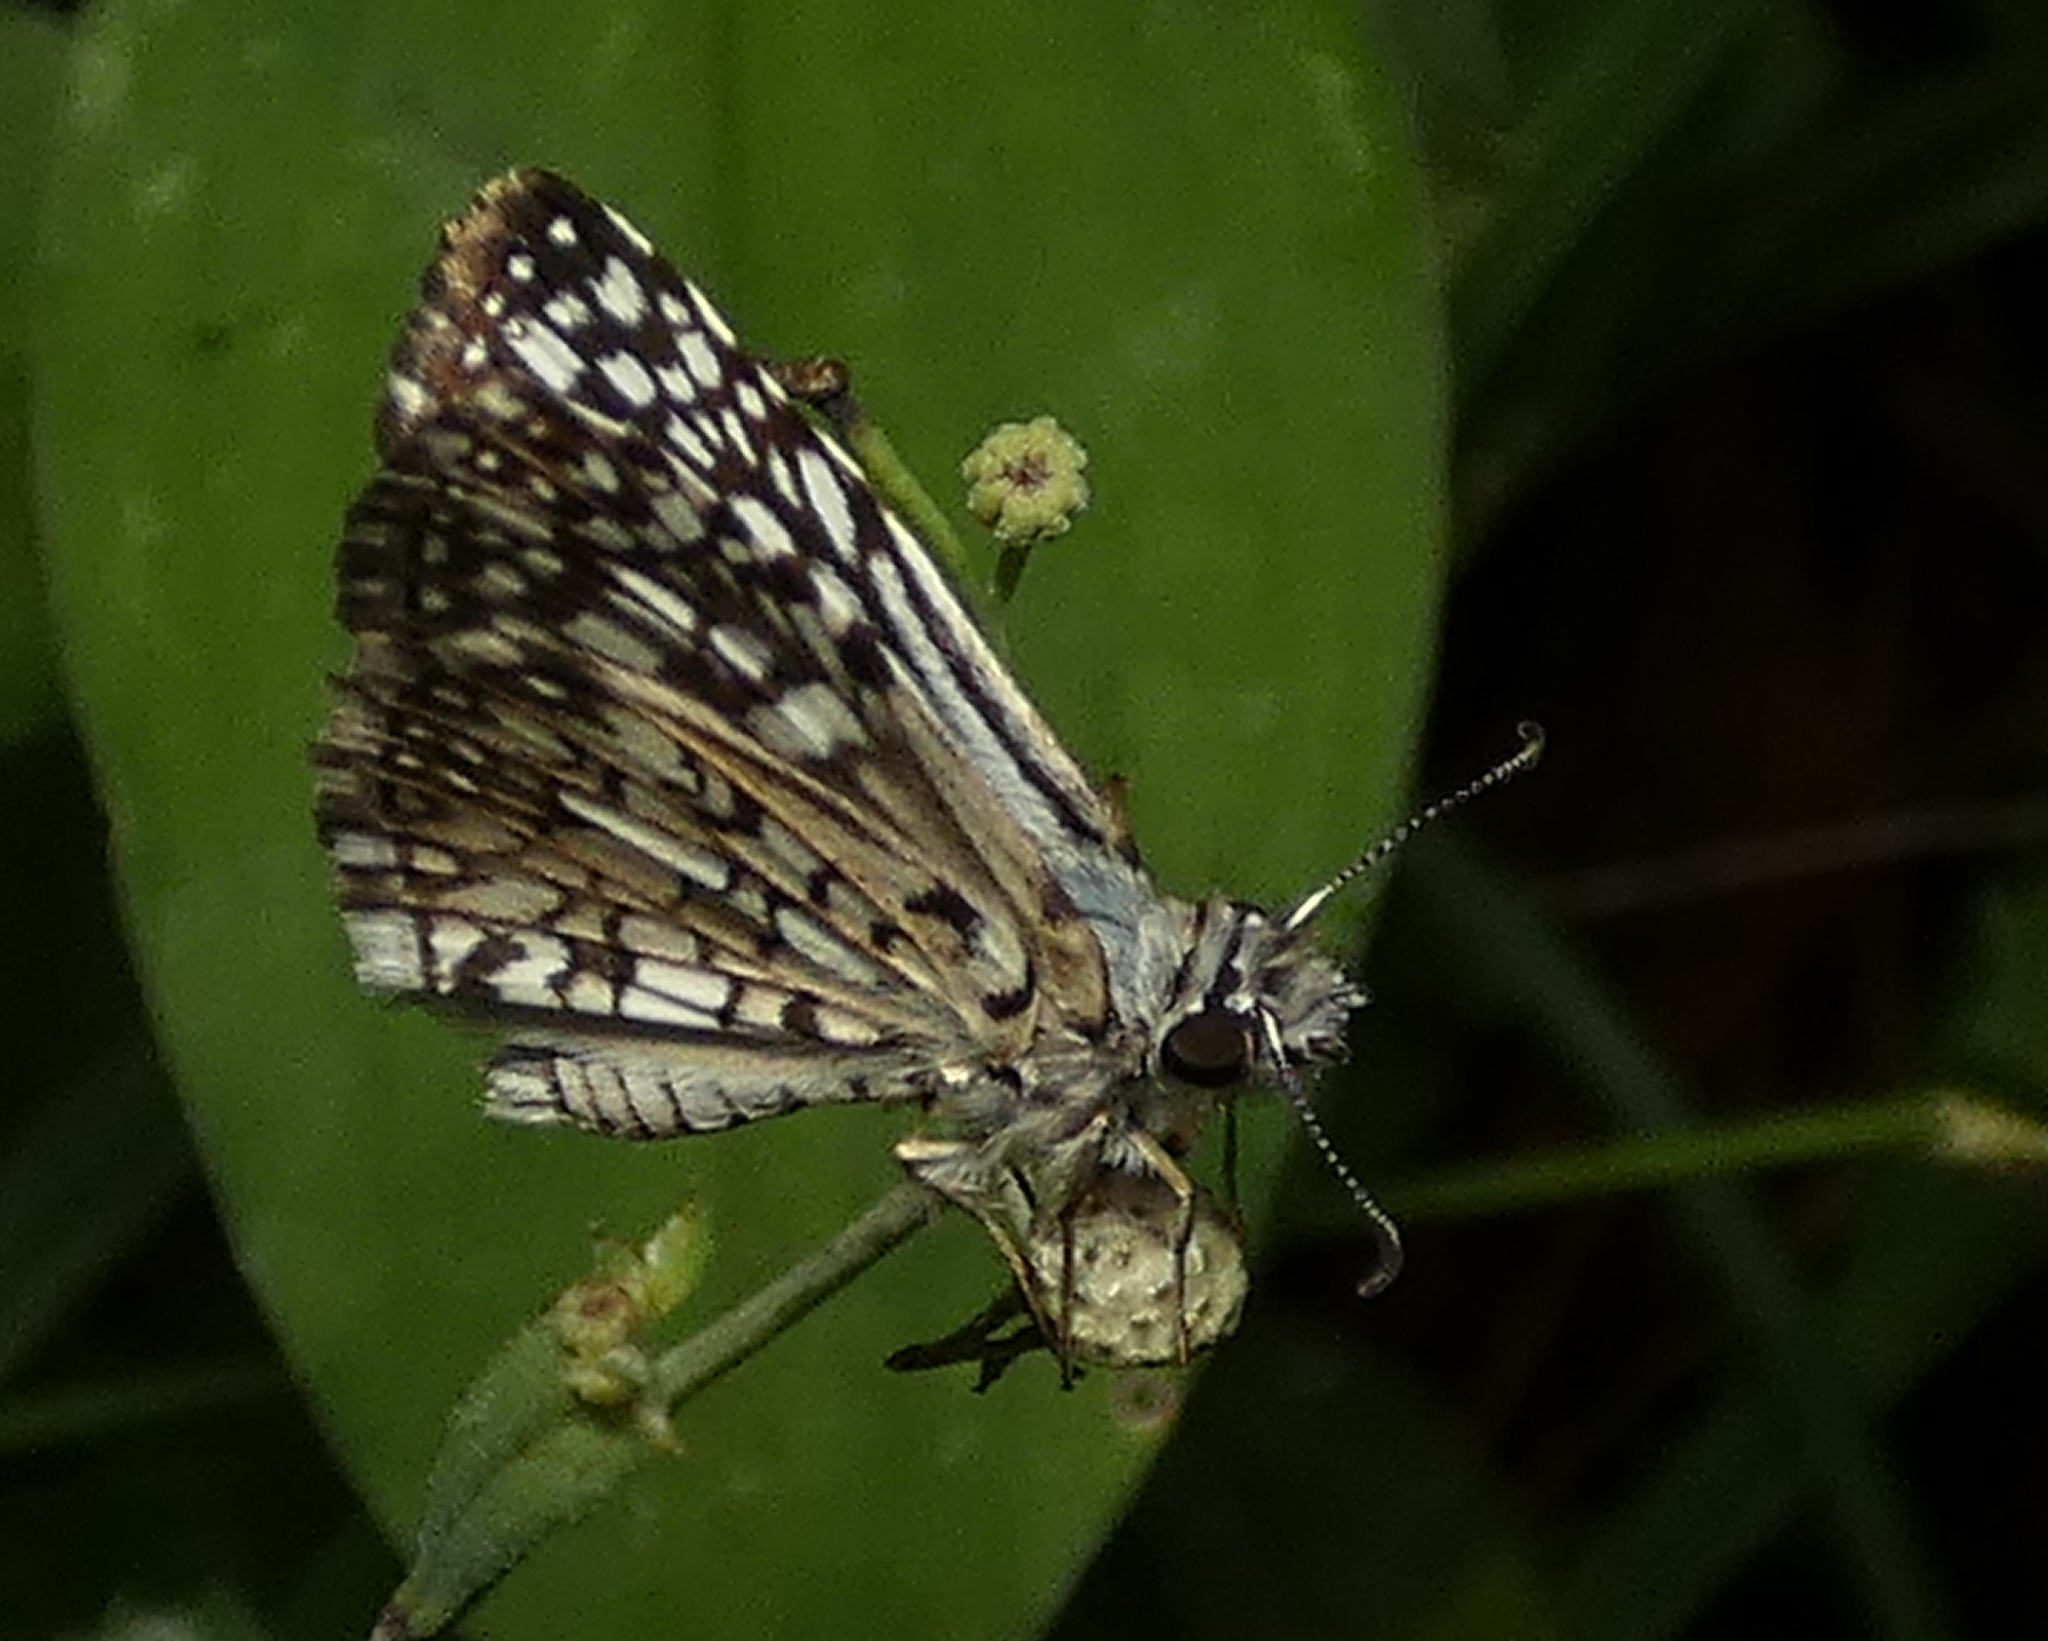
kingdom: Animalia
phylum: Arthropoda
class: Insecta
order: Lepidoptera
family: Hesperiidae
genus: Pyrgus
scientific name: Pyrgus oileus
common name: Tropical checkered-skipper
